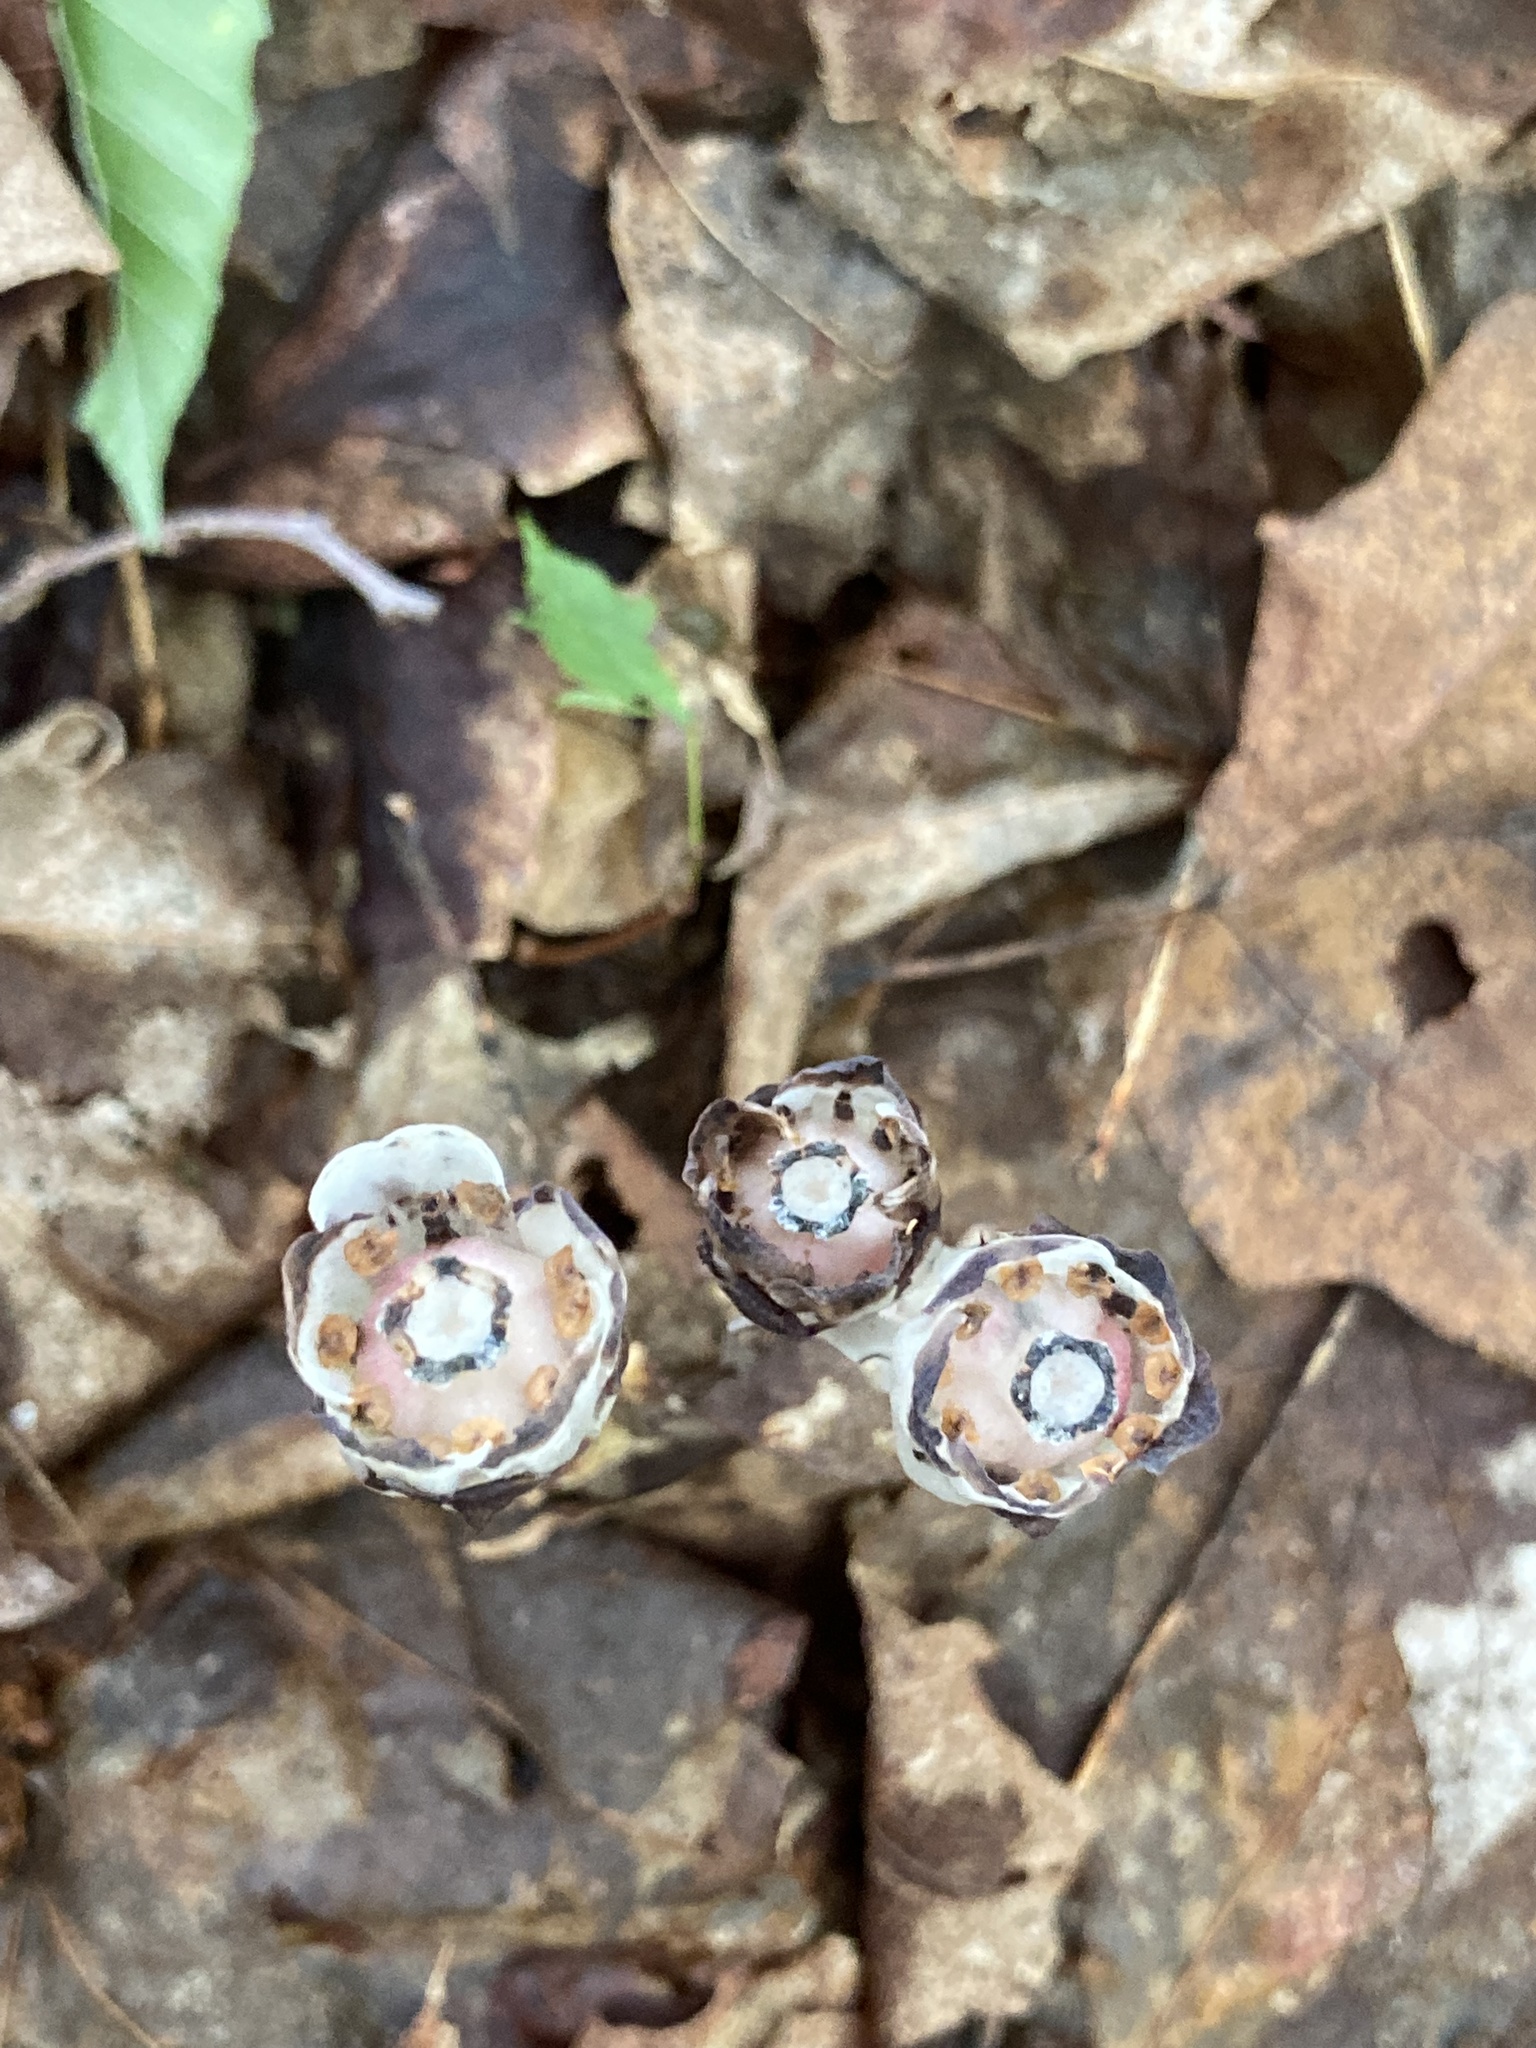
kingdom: Plantae
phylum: Tracheophyta
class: Magnoliopsida
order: Ericales
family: Ericaceae
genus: Monotropa
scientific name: Monotropa uniflora
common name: Convulsion root
